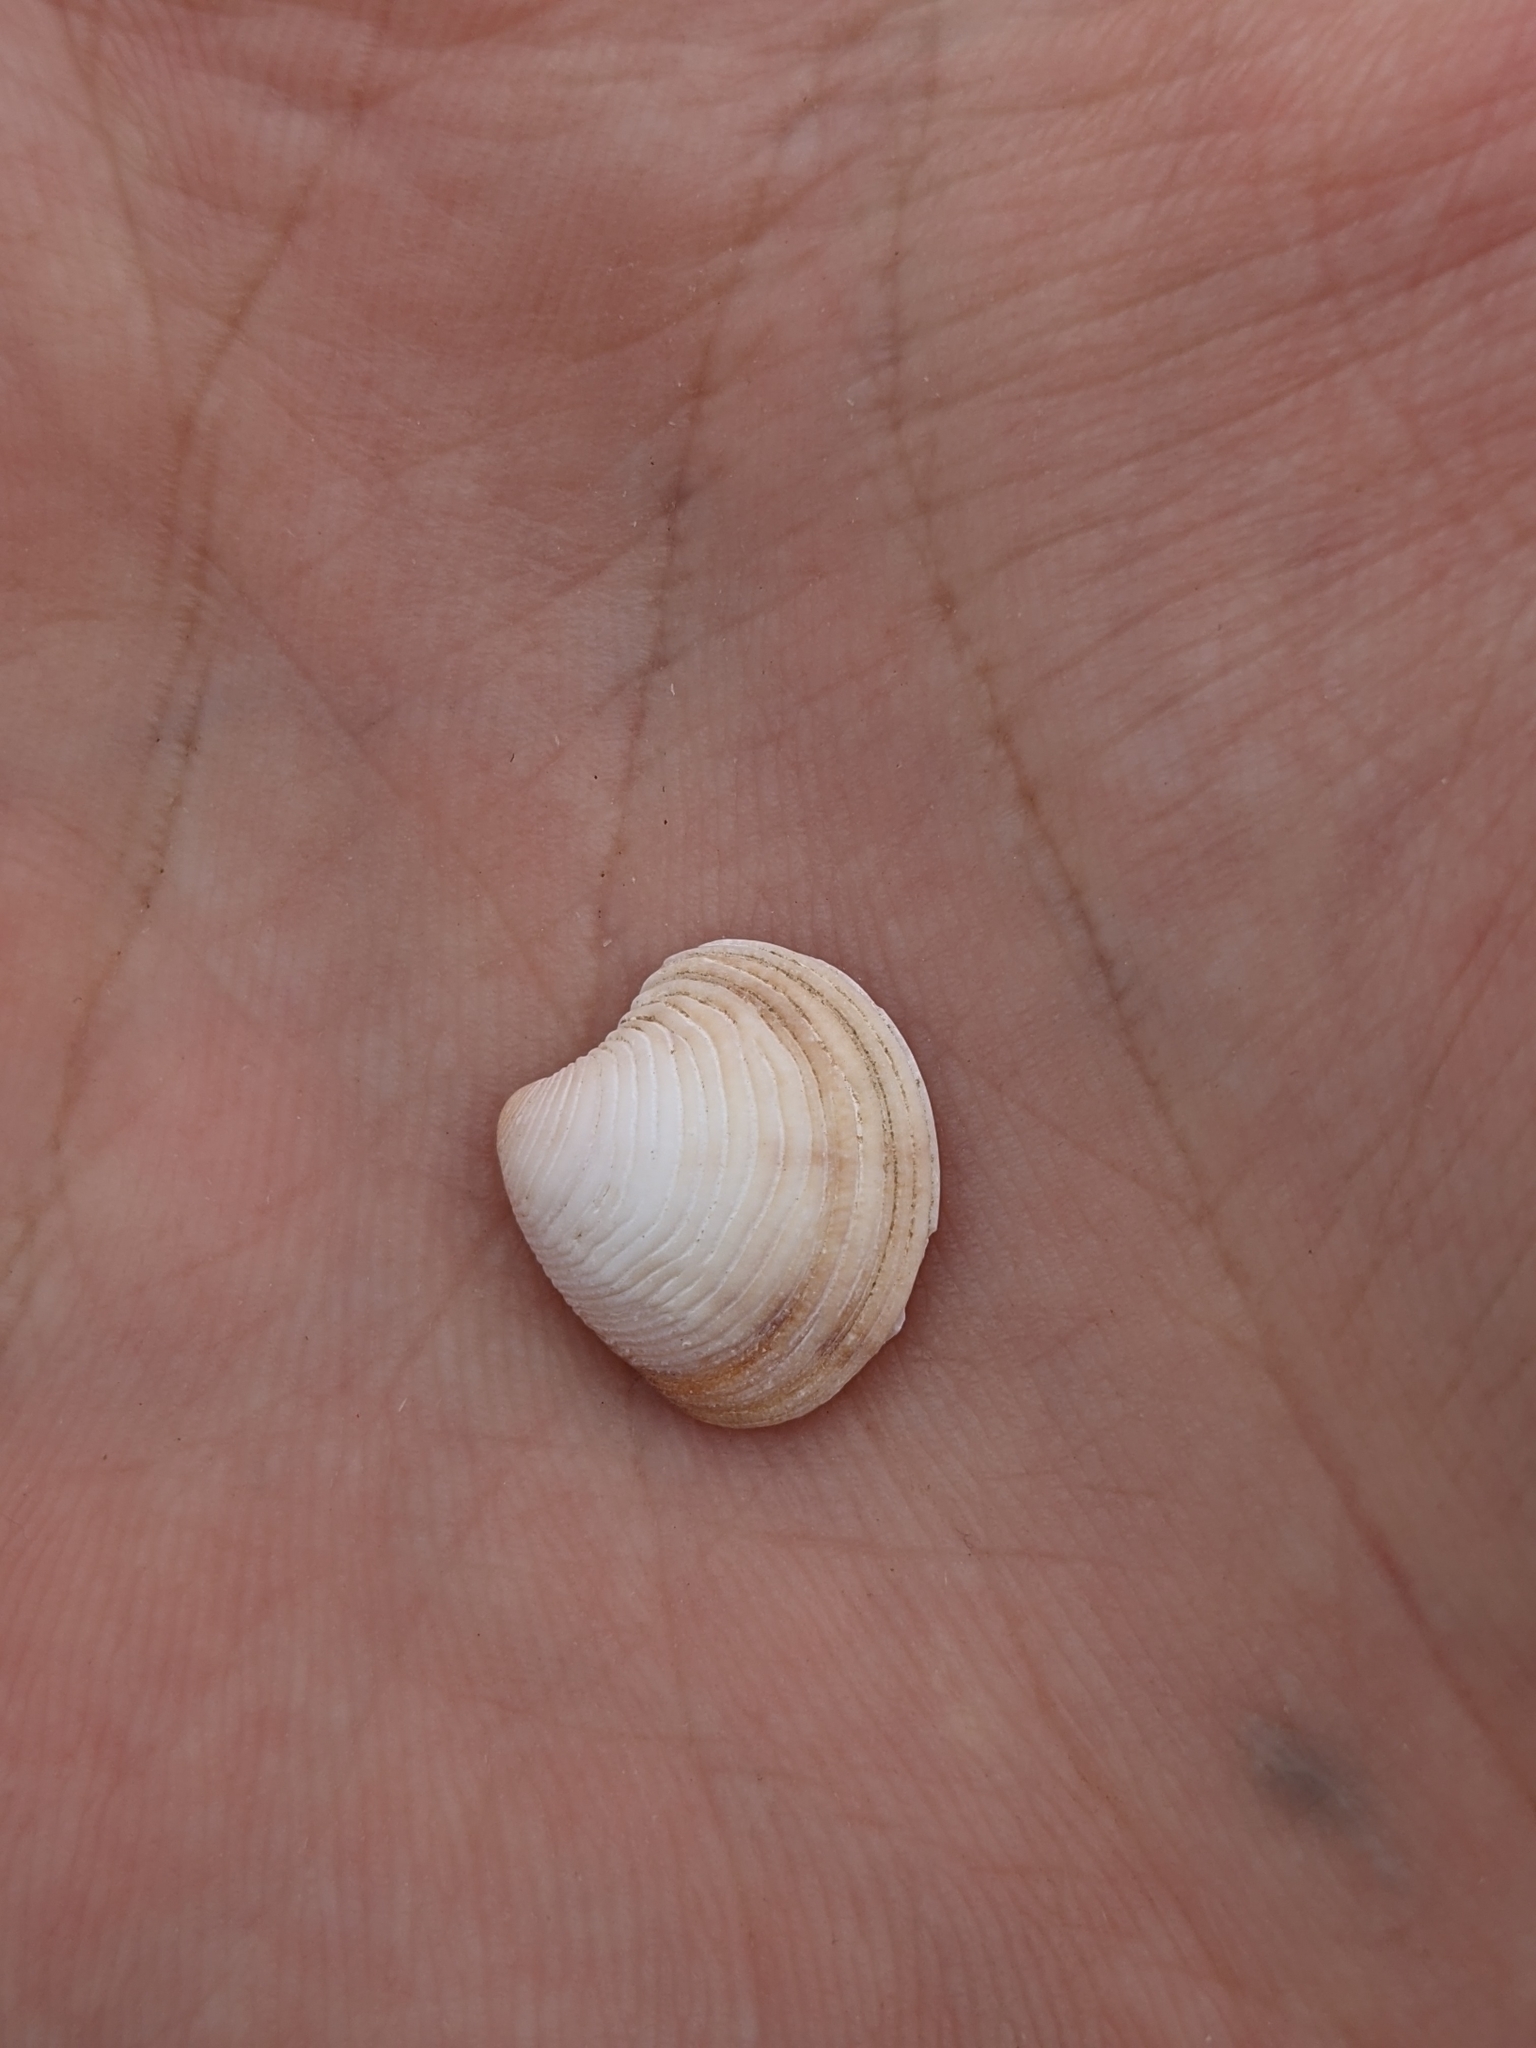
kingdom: Animalia
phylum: Mollusca
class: Bivalvia
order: Venerida
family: Veneridae
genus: Chamelea
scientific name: Chamelea gallina
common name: Chicken venus
